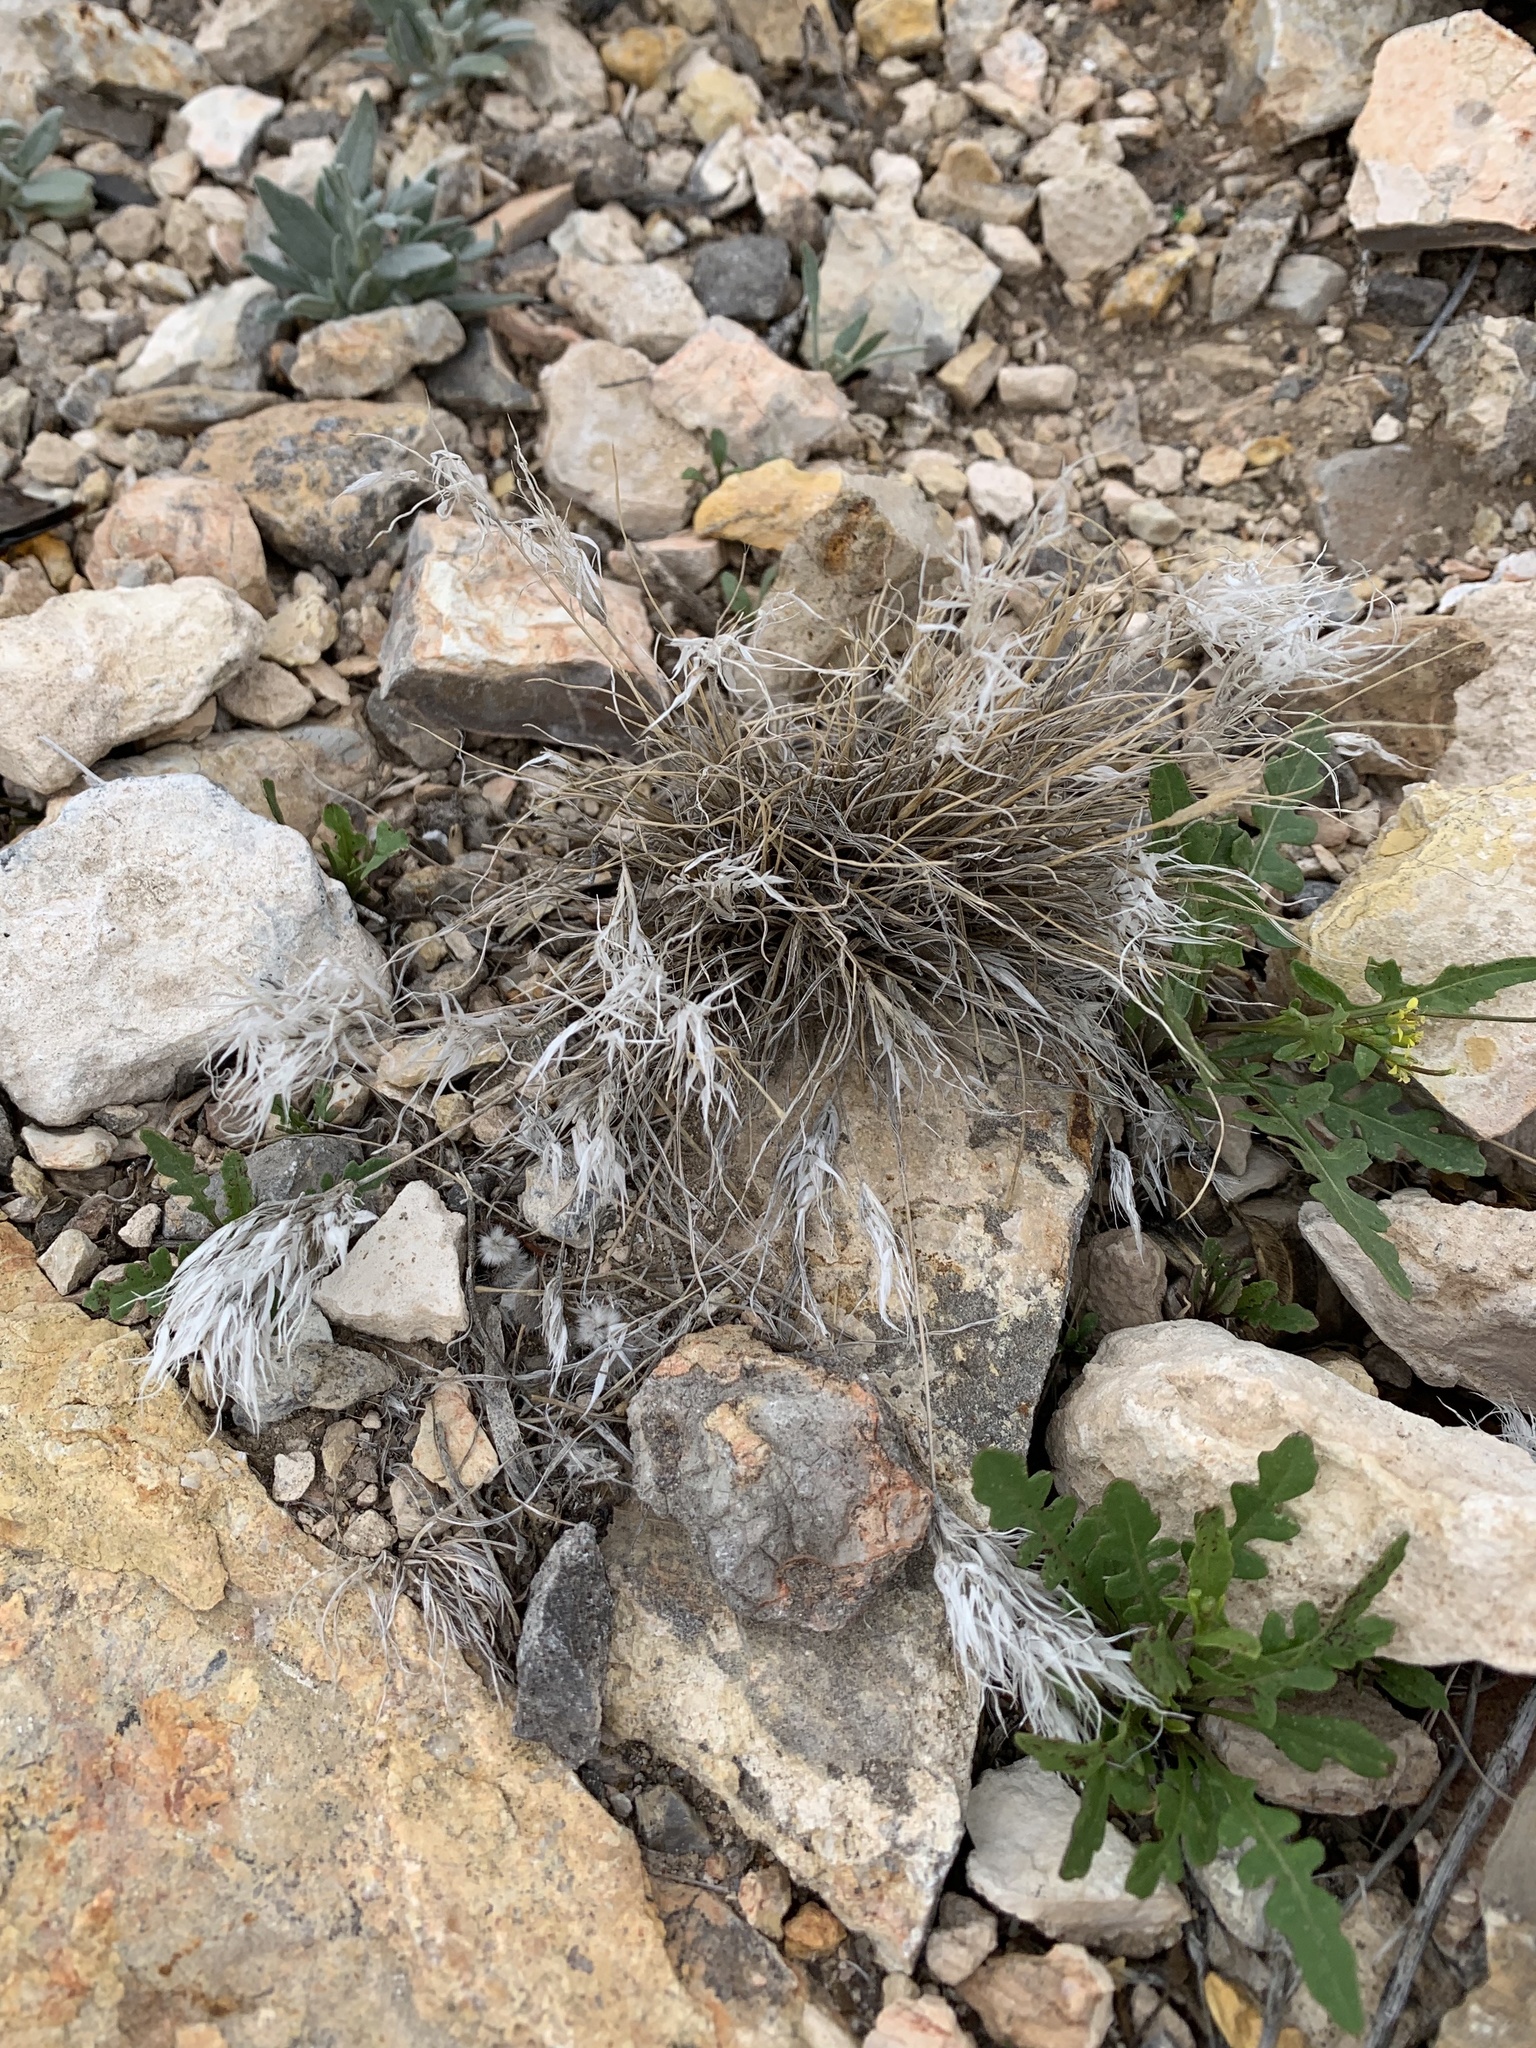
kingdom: Plantae
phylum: Tracheophyta
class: Liliopsida
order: Poales
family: Poaceae
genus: Dasyochloa
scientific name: Dasyochloa pulchella
